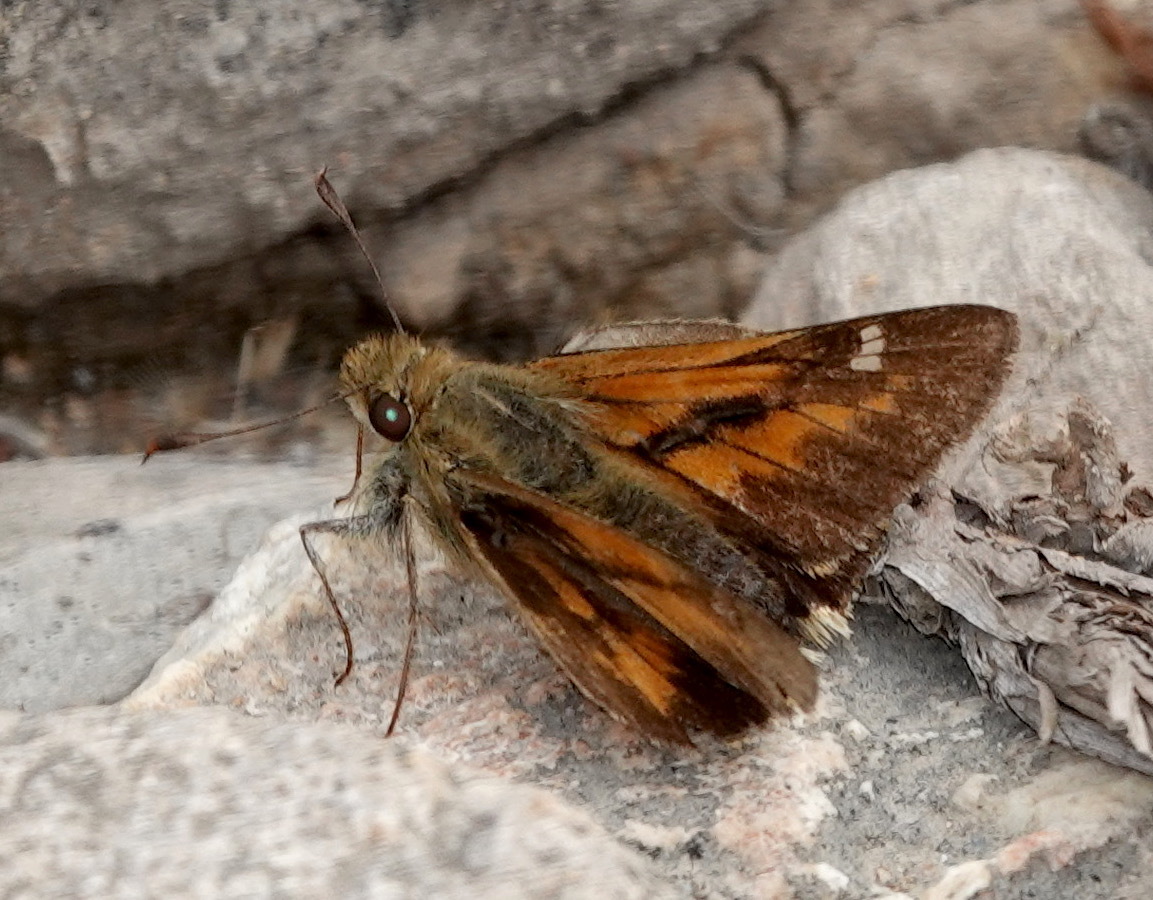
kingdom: Animalia
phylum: Arthropoda
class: Insecta
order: Lepidoptera
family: Hesperiidae
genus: Serdis
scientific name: Serdis venezuelae
